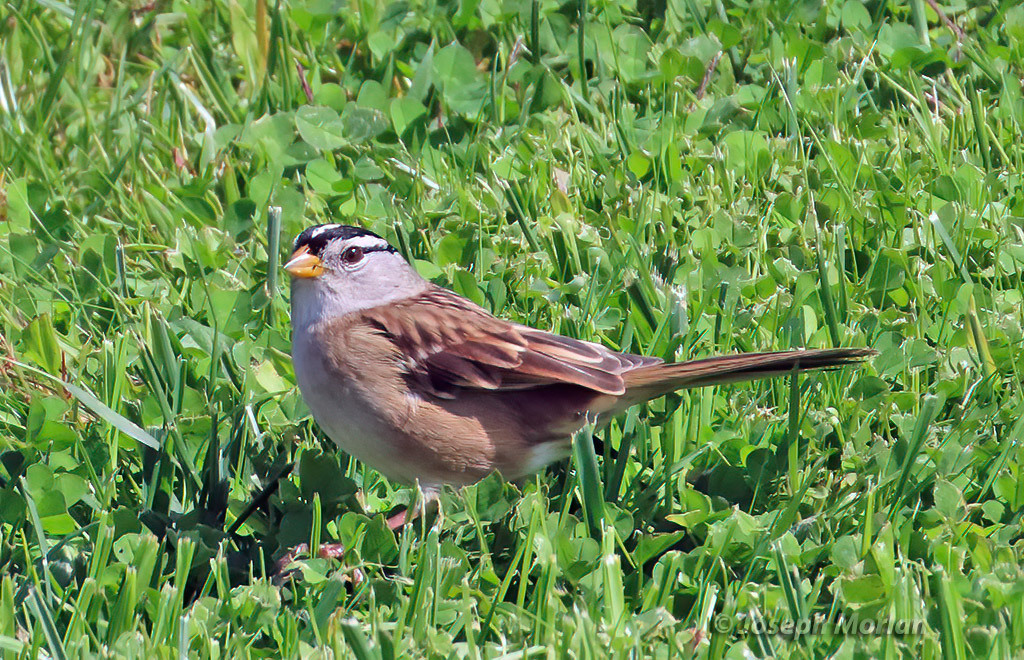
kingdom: Animalia
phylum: Chordata
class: Aves
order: Passeriformes
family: Passerellidae
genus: Zonotrichia
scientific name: Zonotrichia leucophrys
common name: White-crowned sparrow
